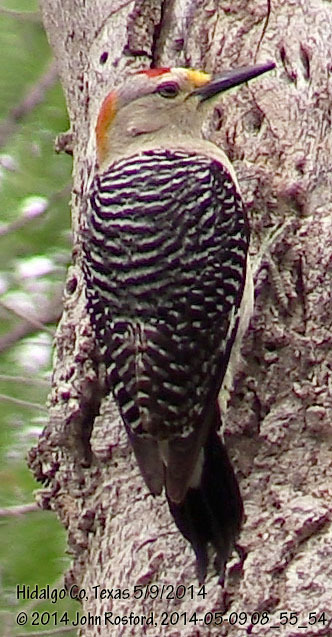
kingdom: Animalia
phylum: Chordata
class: Aves
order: Piciformes
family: Picidae
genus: Melanerpes
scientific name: Melanerpes aurifrons
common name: Golden-fronted woodpecker
